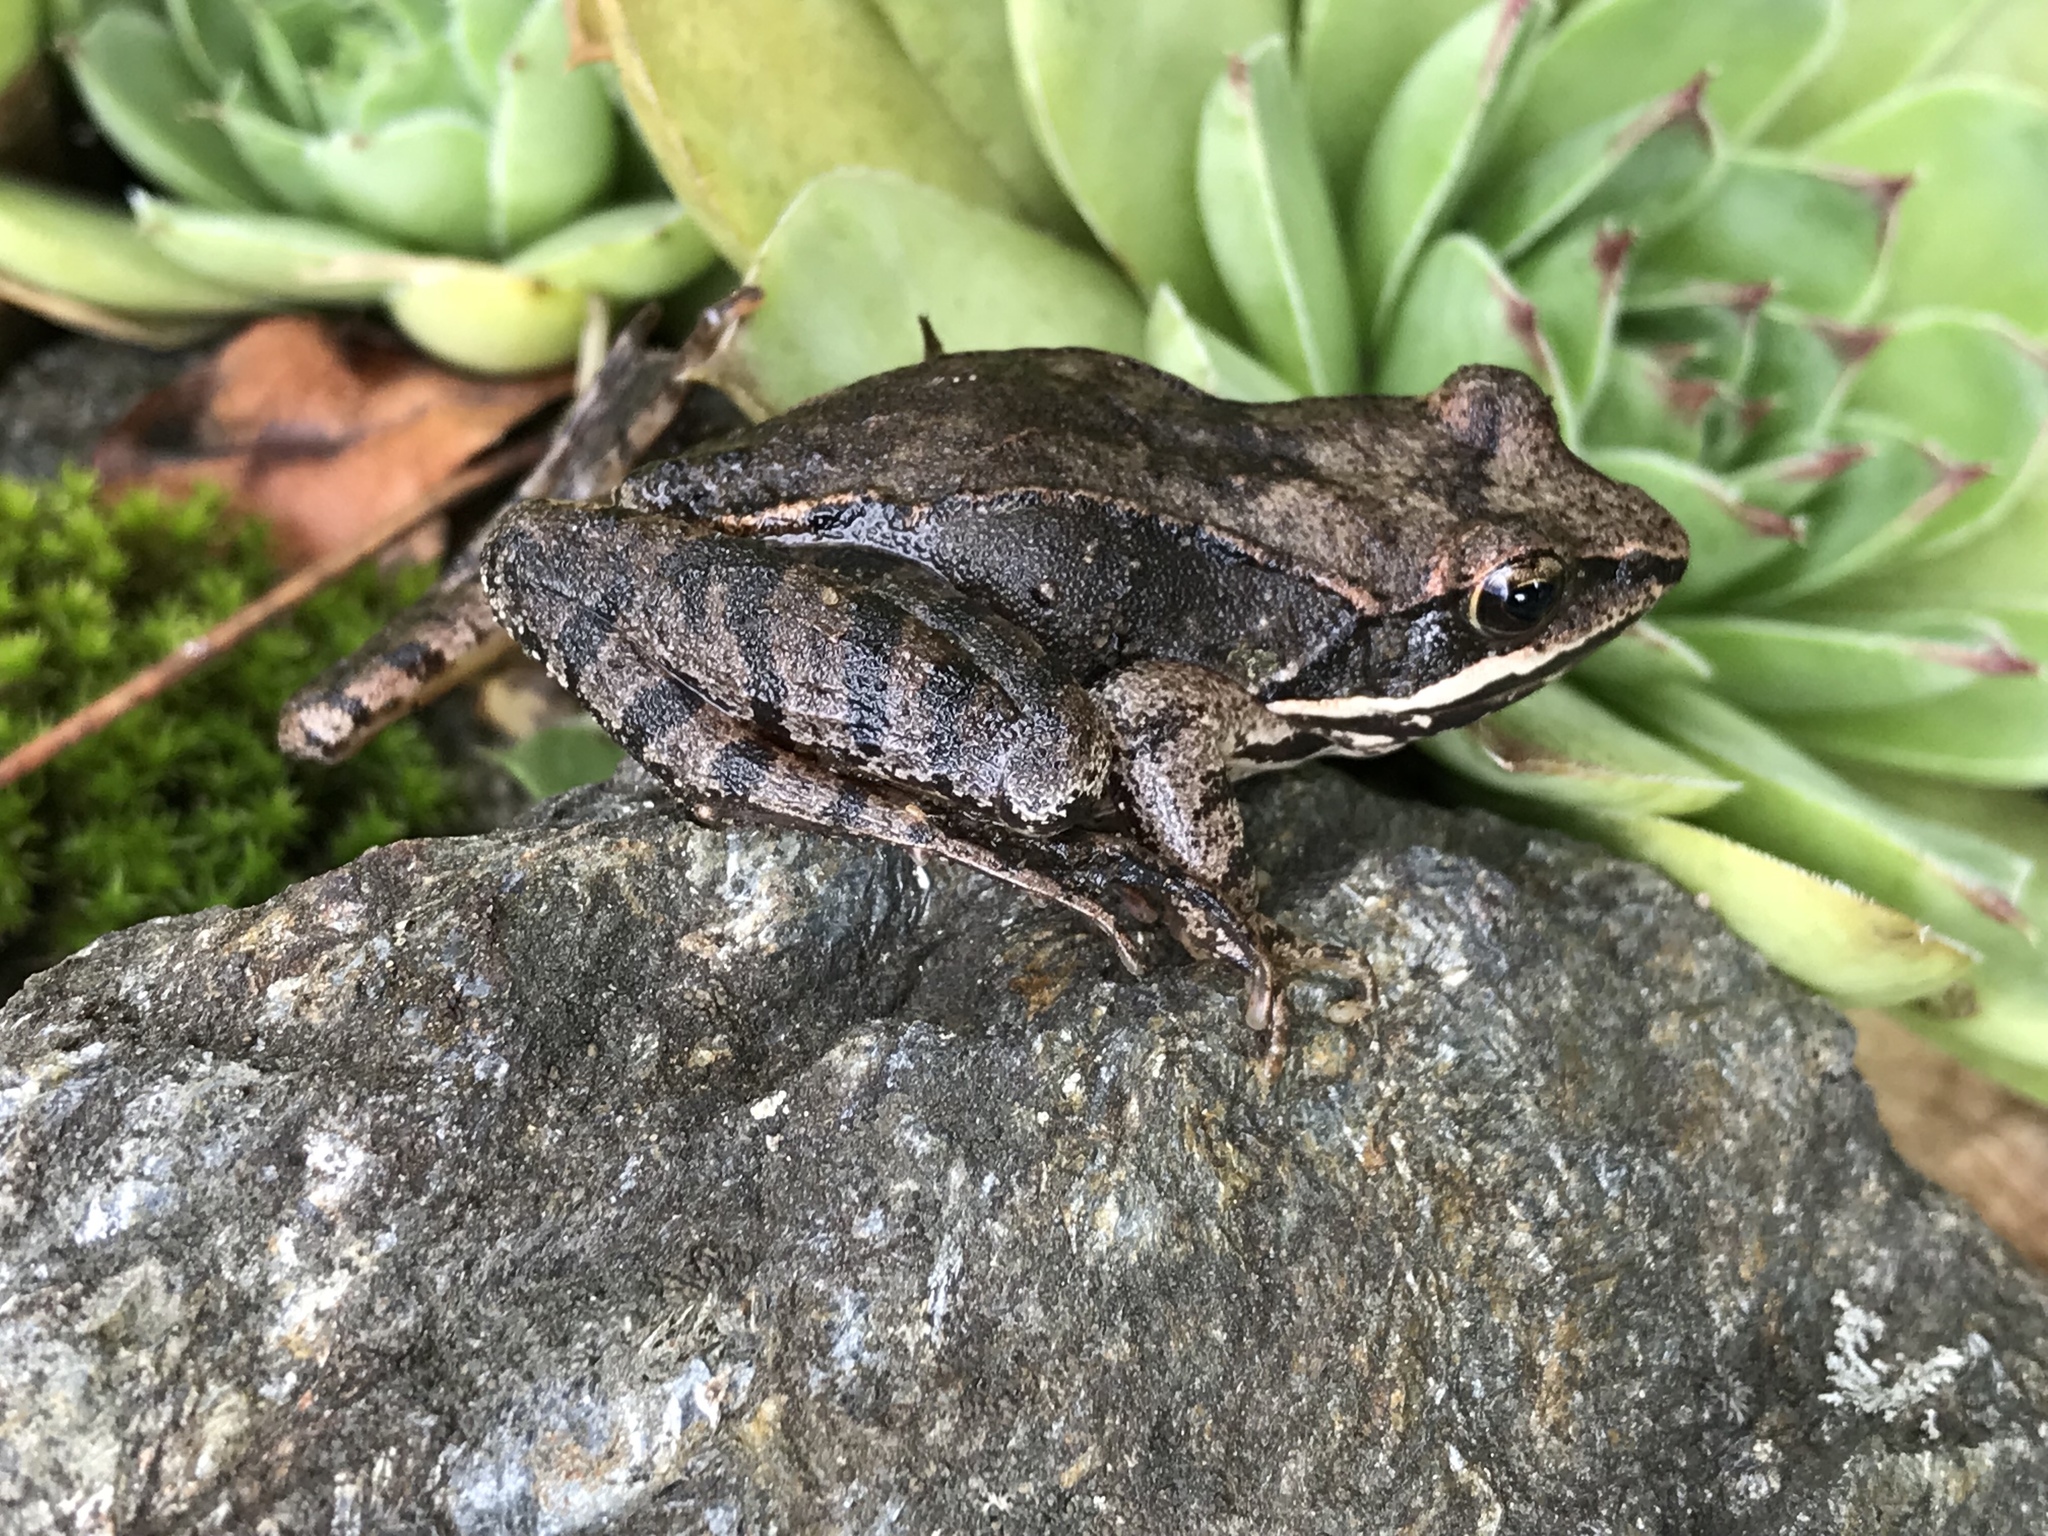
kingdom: Animalia
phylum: Chordata
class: Amphibia
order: Anura
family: Ranidae
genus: Lithobates
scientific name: Lithobates sylvaticus
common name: Wood frog
